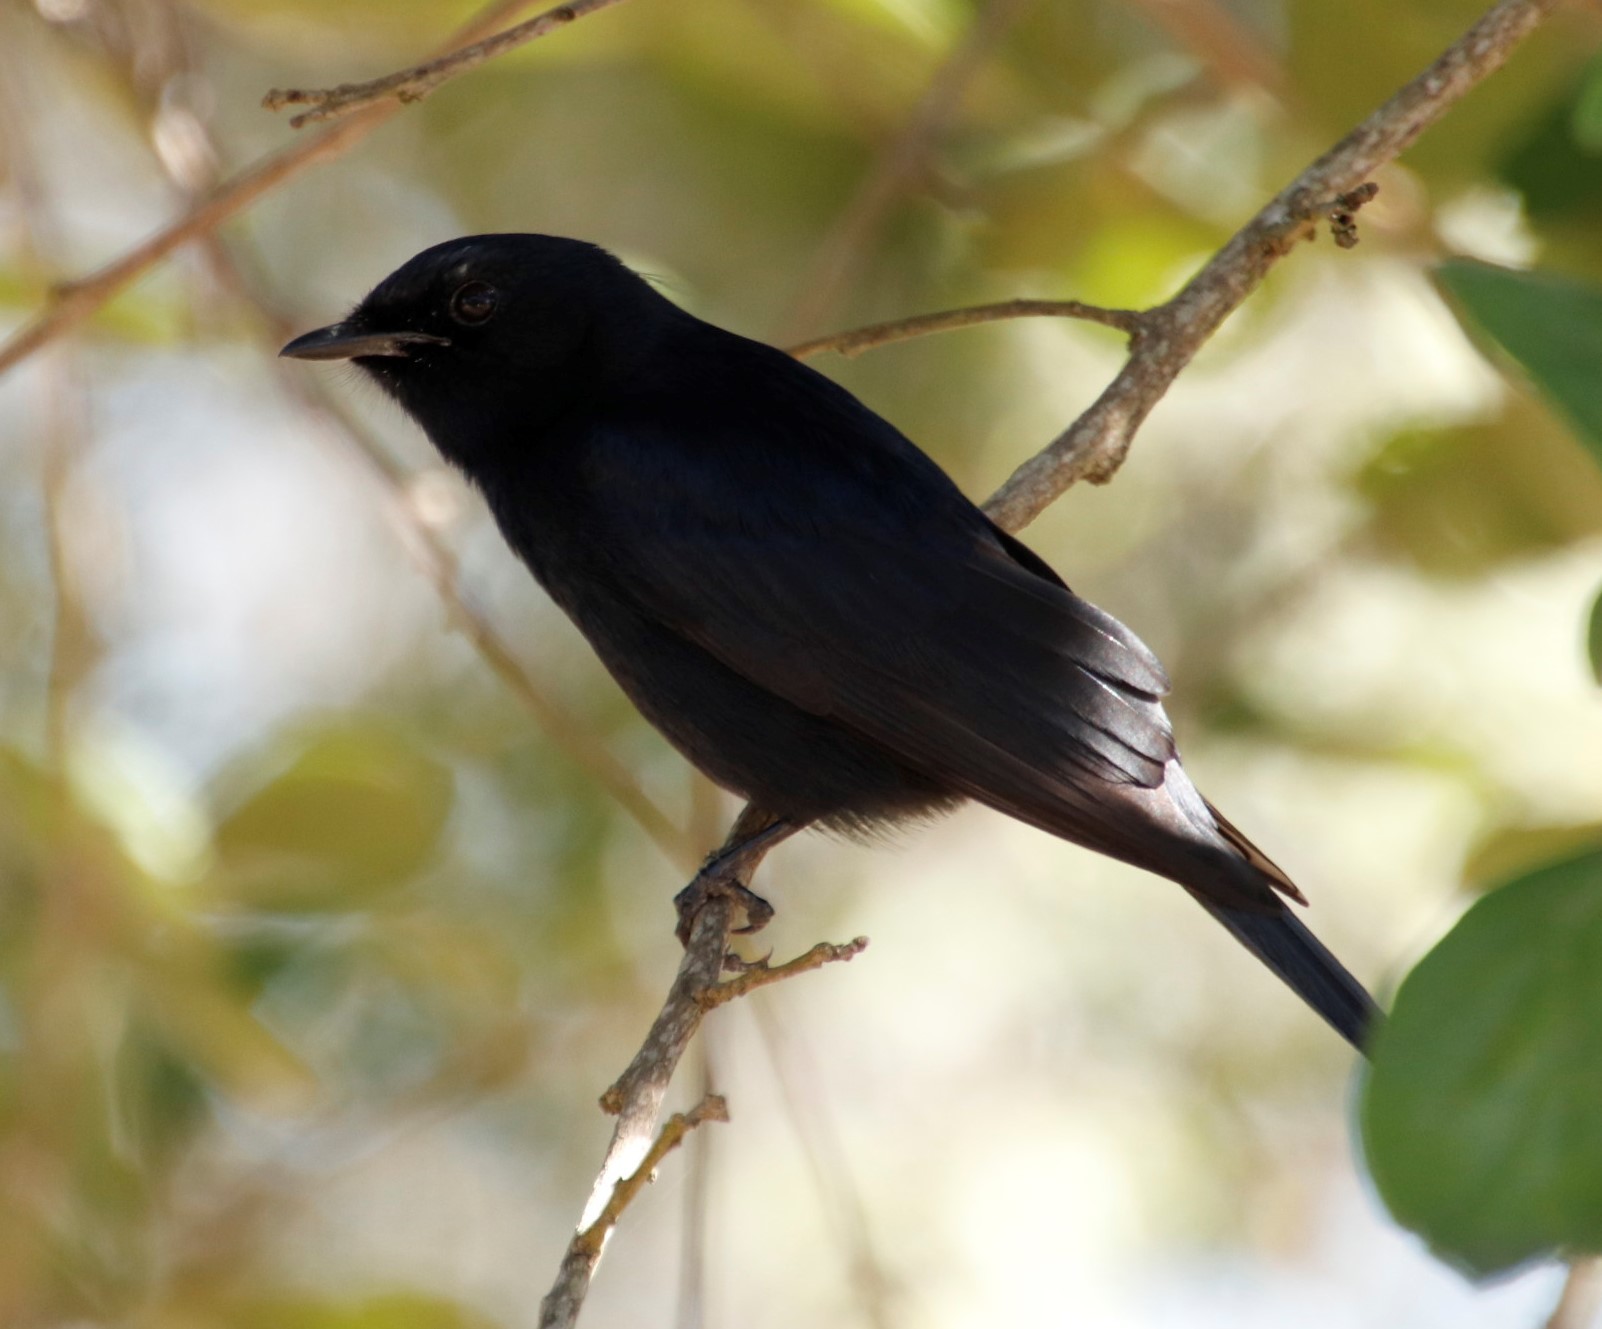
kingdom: Animalia
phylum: Chordata
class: Aves
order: Passeriformes
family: Muscicapidae
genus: Melaenornis
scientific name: Melaenornis pammelaina
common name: Southern black flycatcher
